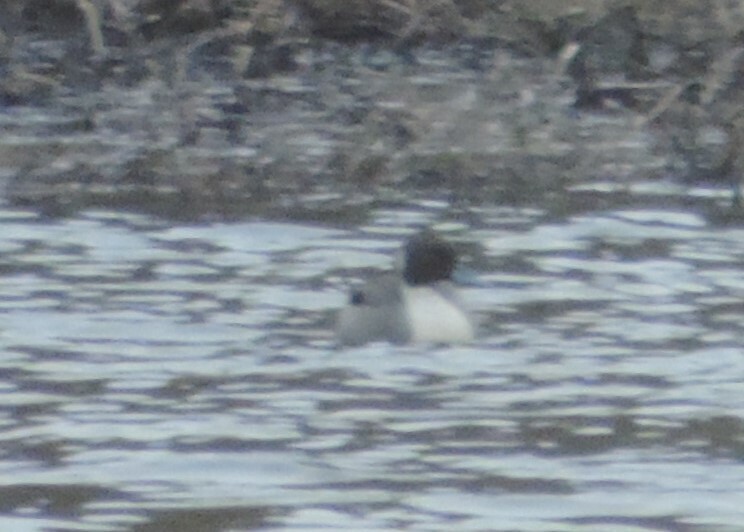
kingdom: Animalia
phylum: Chordata
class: Aves
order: Anseriformes
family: Anatidae
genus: Anas
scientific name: Anas acuta
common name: Northern pintail
